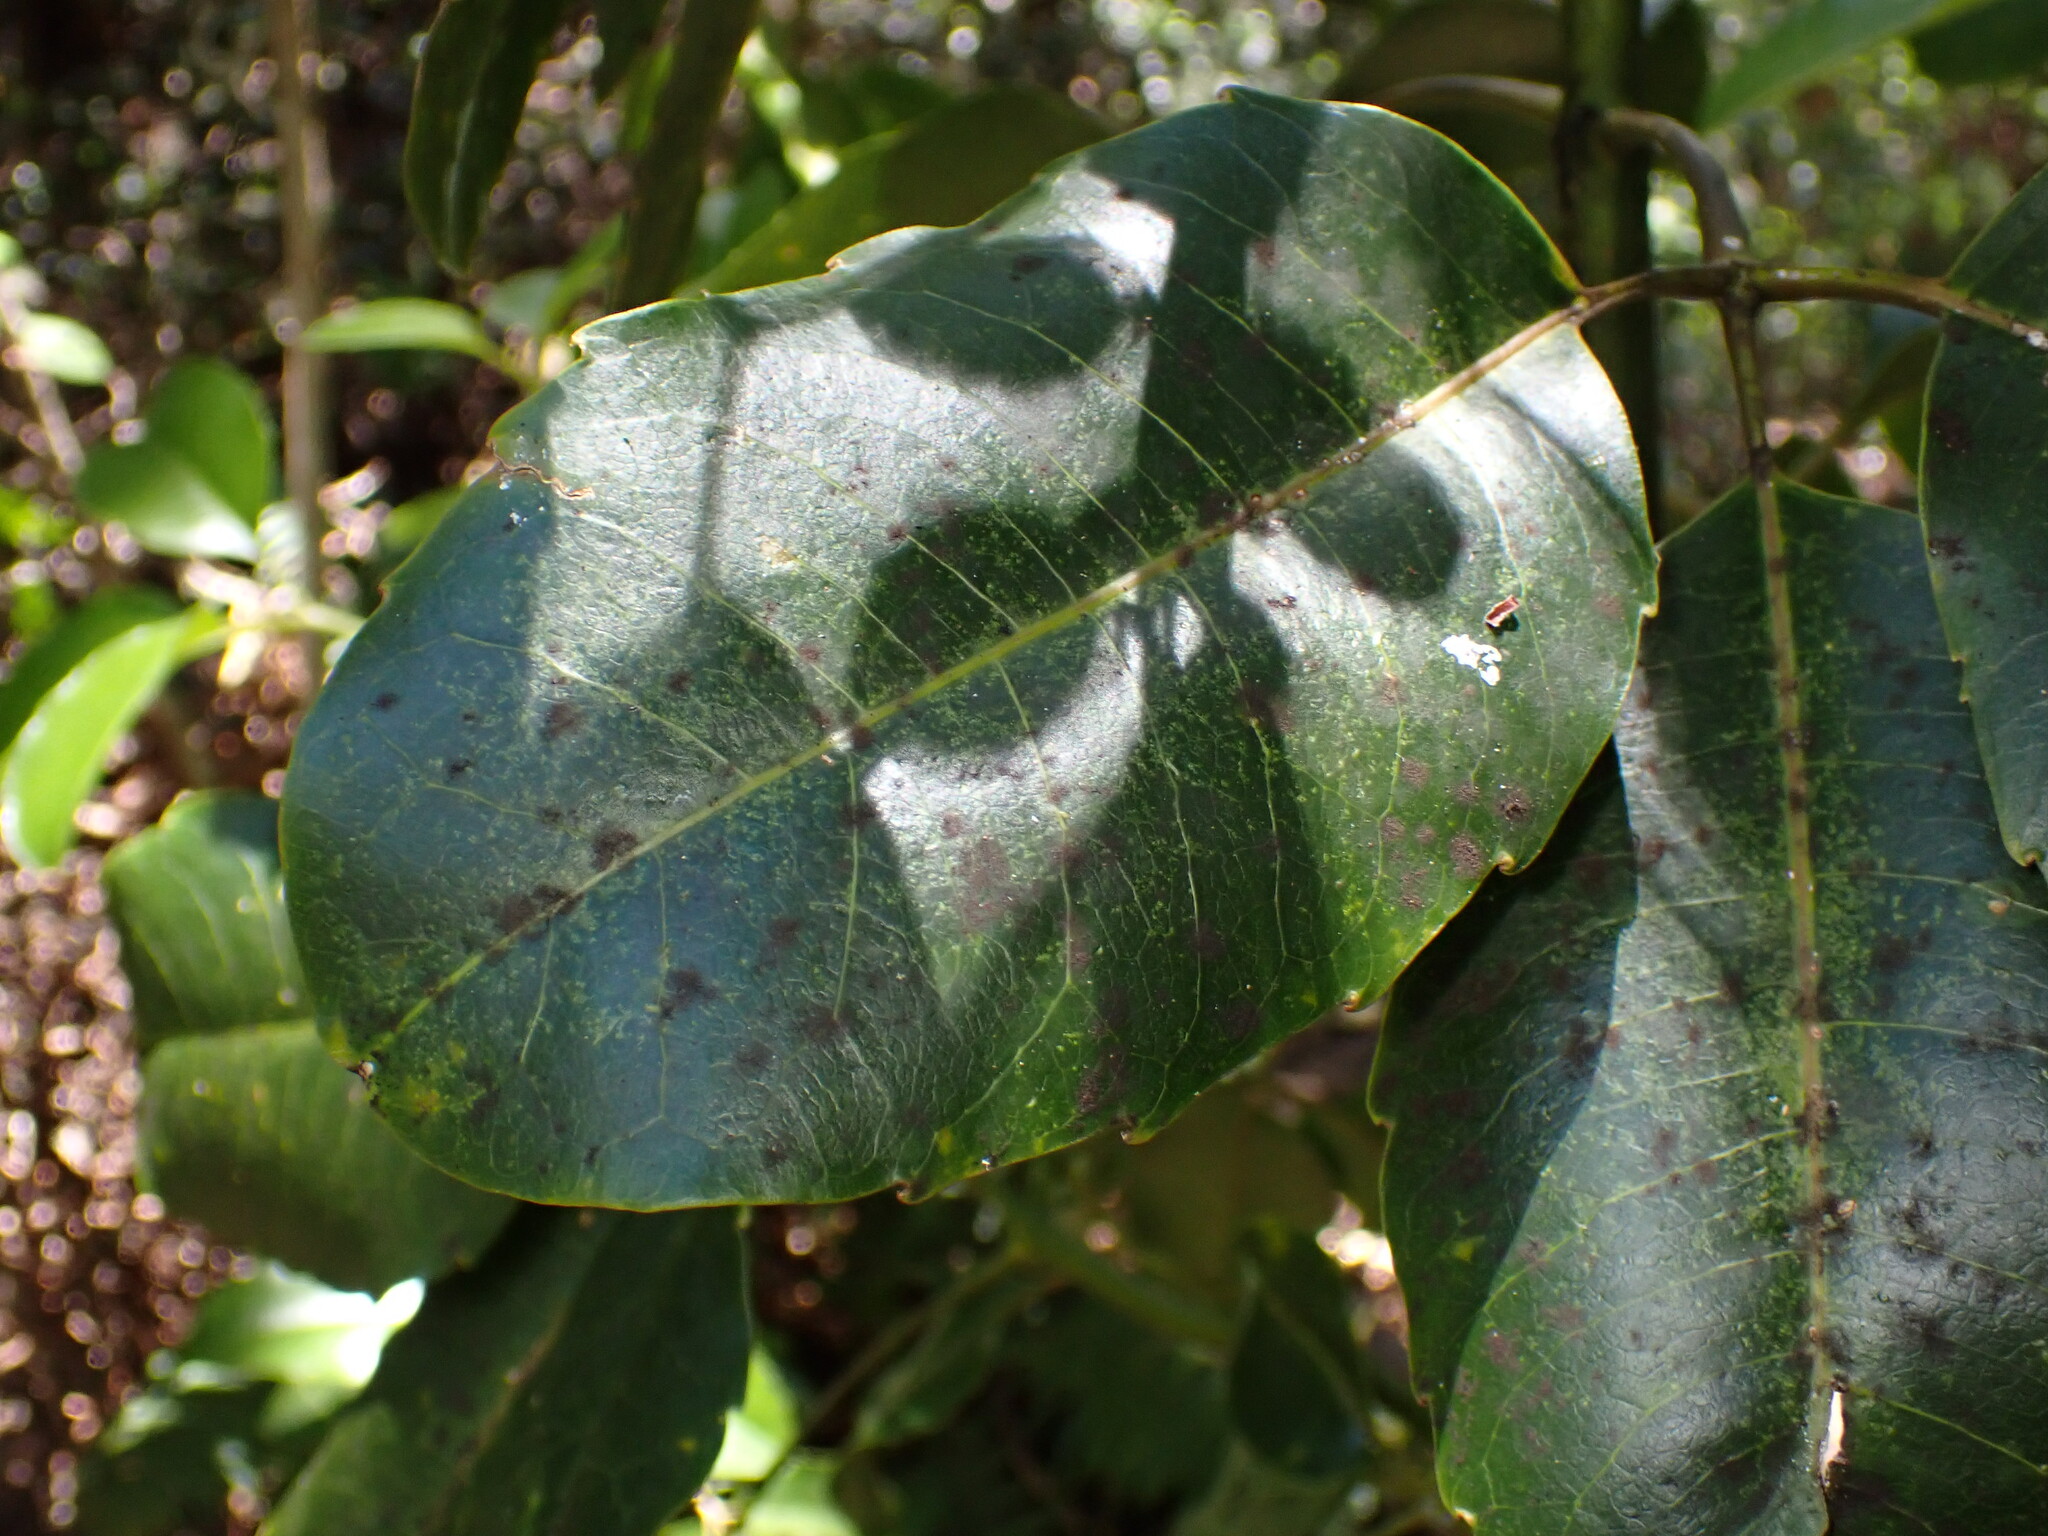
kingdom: Plantae
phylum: Tracheophyta
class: Magnoliopsida
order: Apiales
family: Araliaceae
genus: Cheirodendron
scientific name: Cheirodendron trigynum
